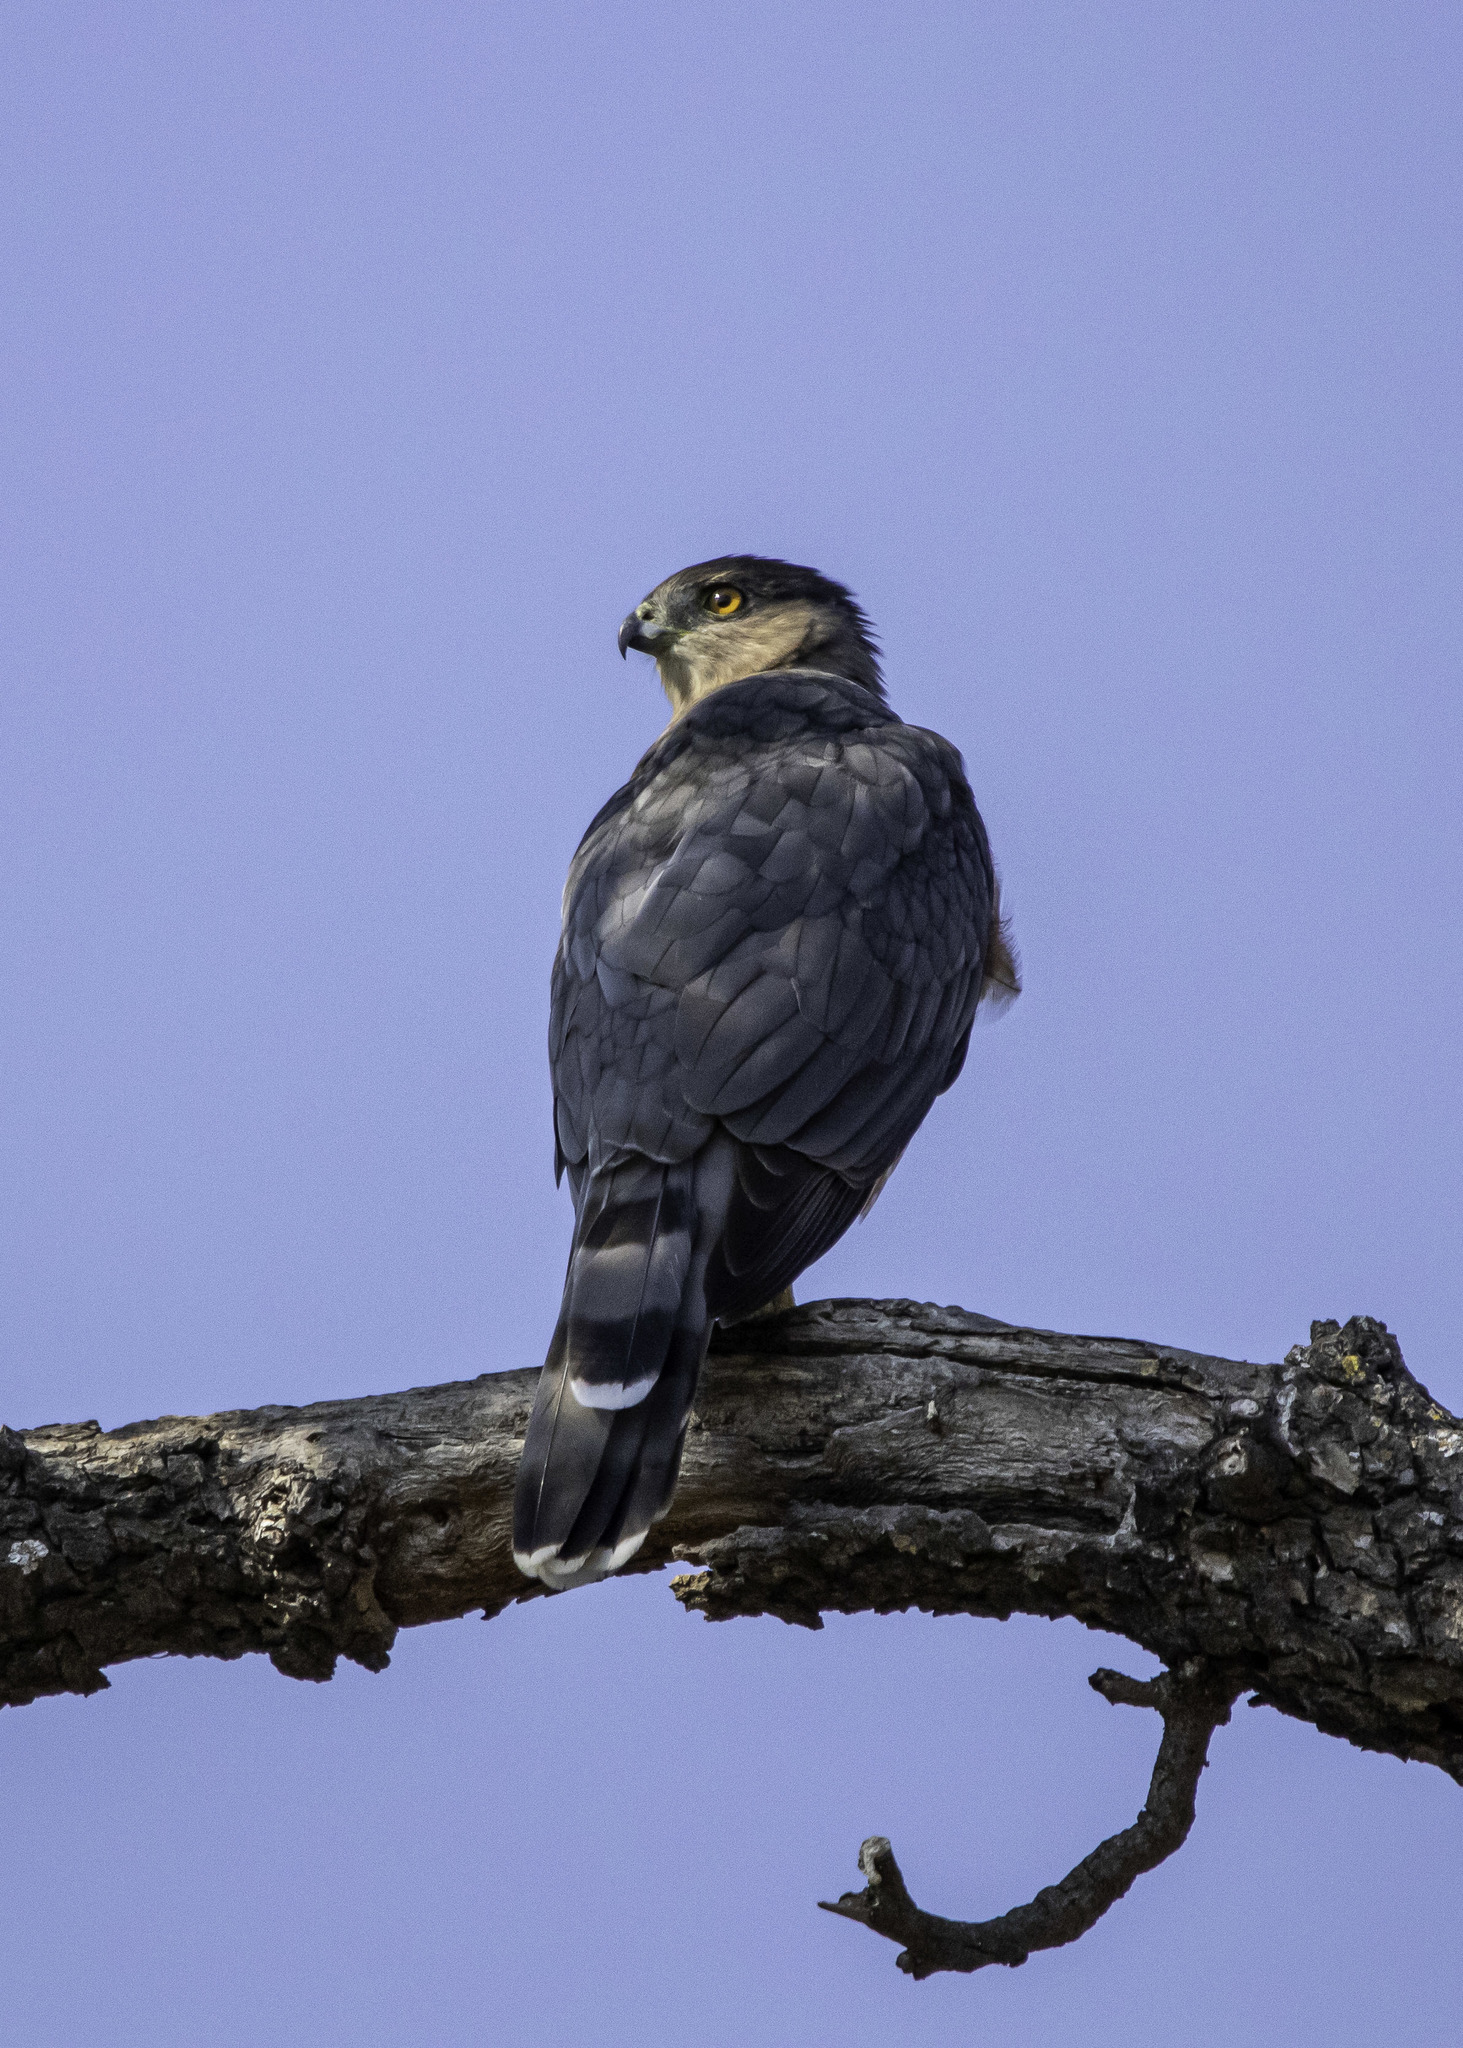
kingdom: Animalia
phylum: Chordata
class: Aves
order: Accipitriformes
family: Accipitridae
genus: Accipiter
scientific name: Accipiter cooperii
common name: Cooper's hawk
